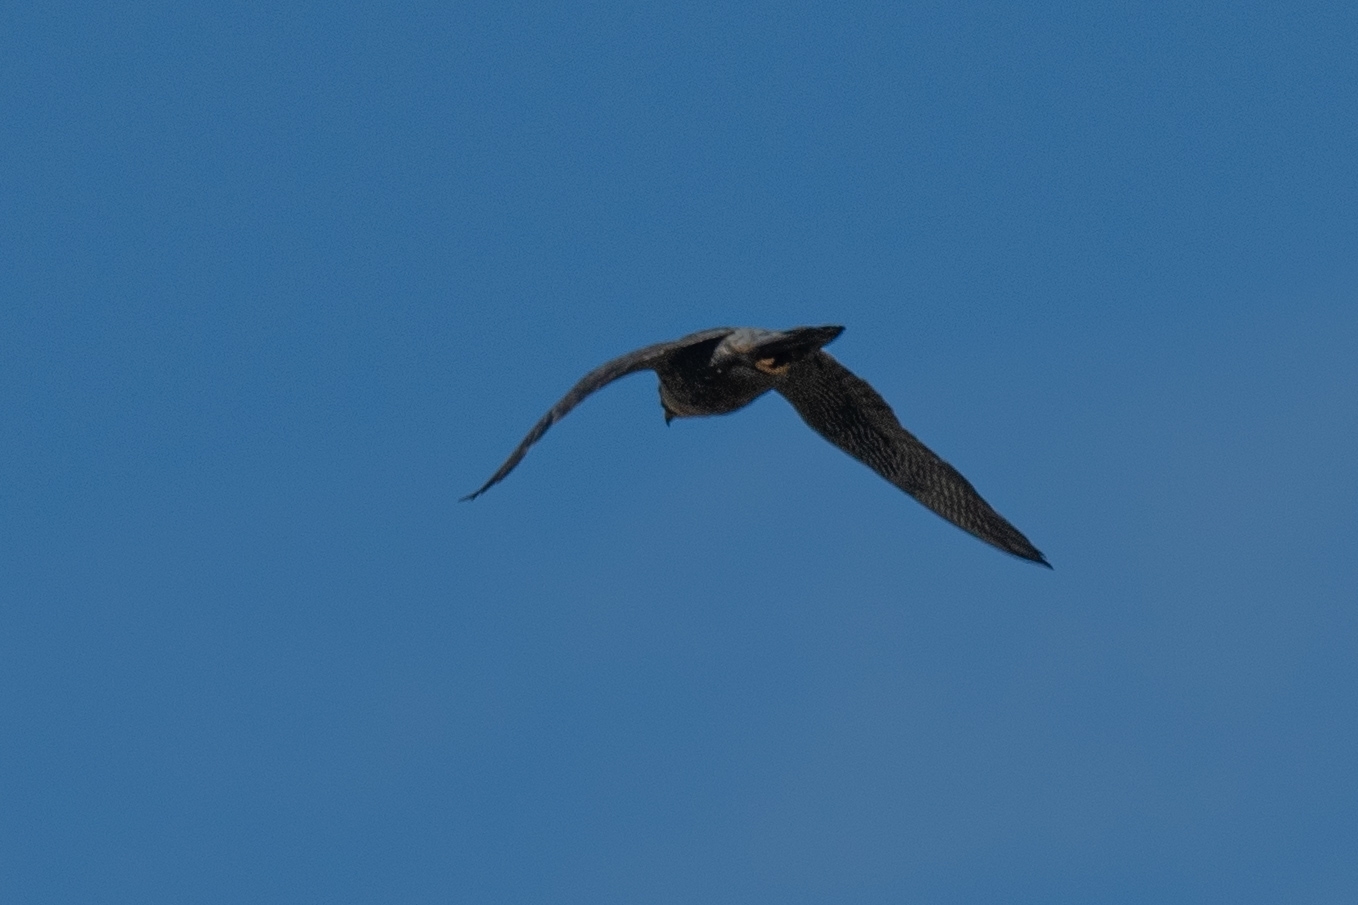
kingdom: Animalia
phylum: Chordata
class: Aves
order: Falconiformes
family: Falconidae
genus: Falco
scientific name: Falco peregrinus
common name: Peregrine falcon
